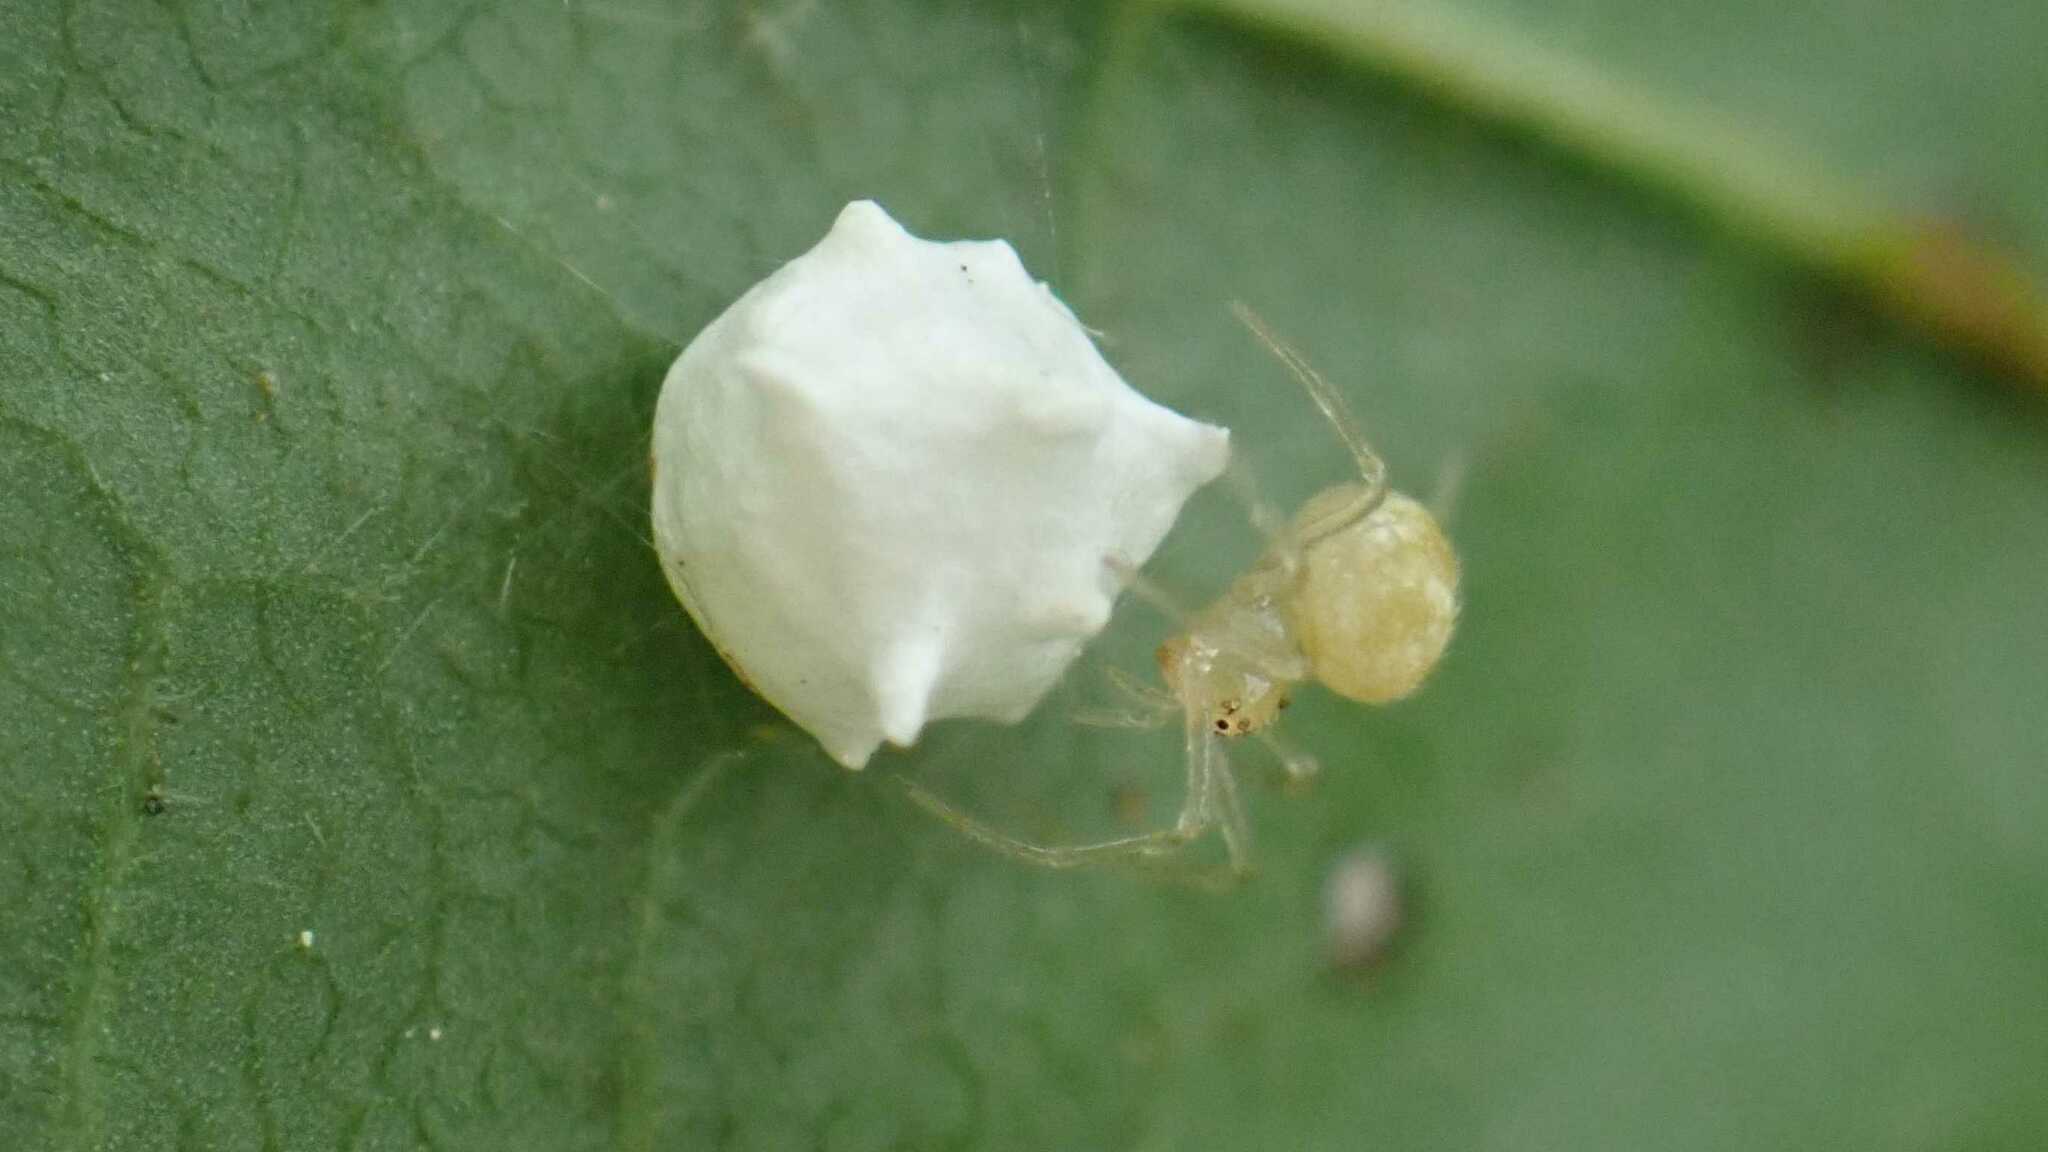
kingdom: Animalia
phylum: Arthropoda
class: Arachnida
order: Araneae
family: Theridiidae
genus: Paidiscura
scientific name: Paidiscura pallens
